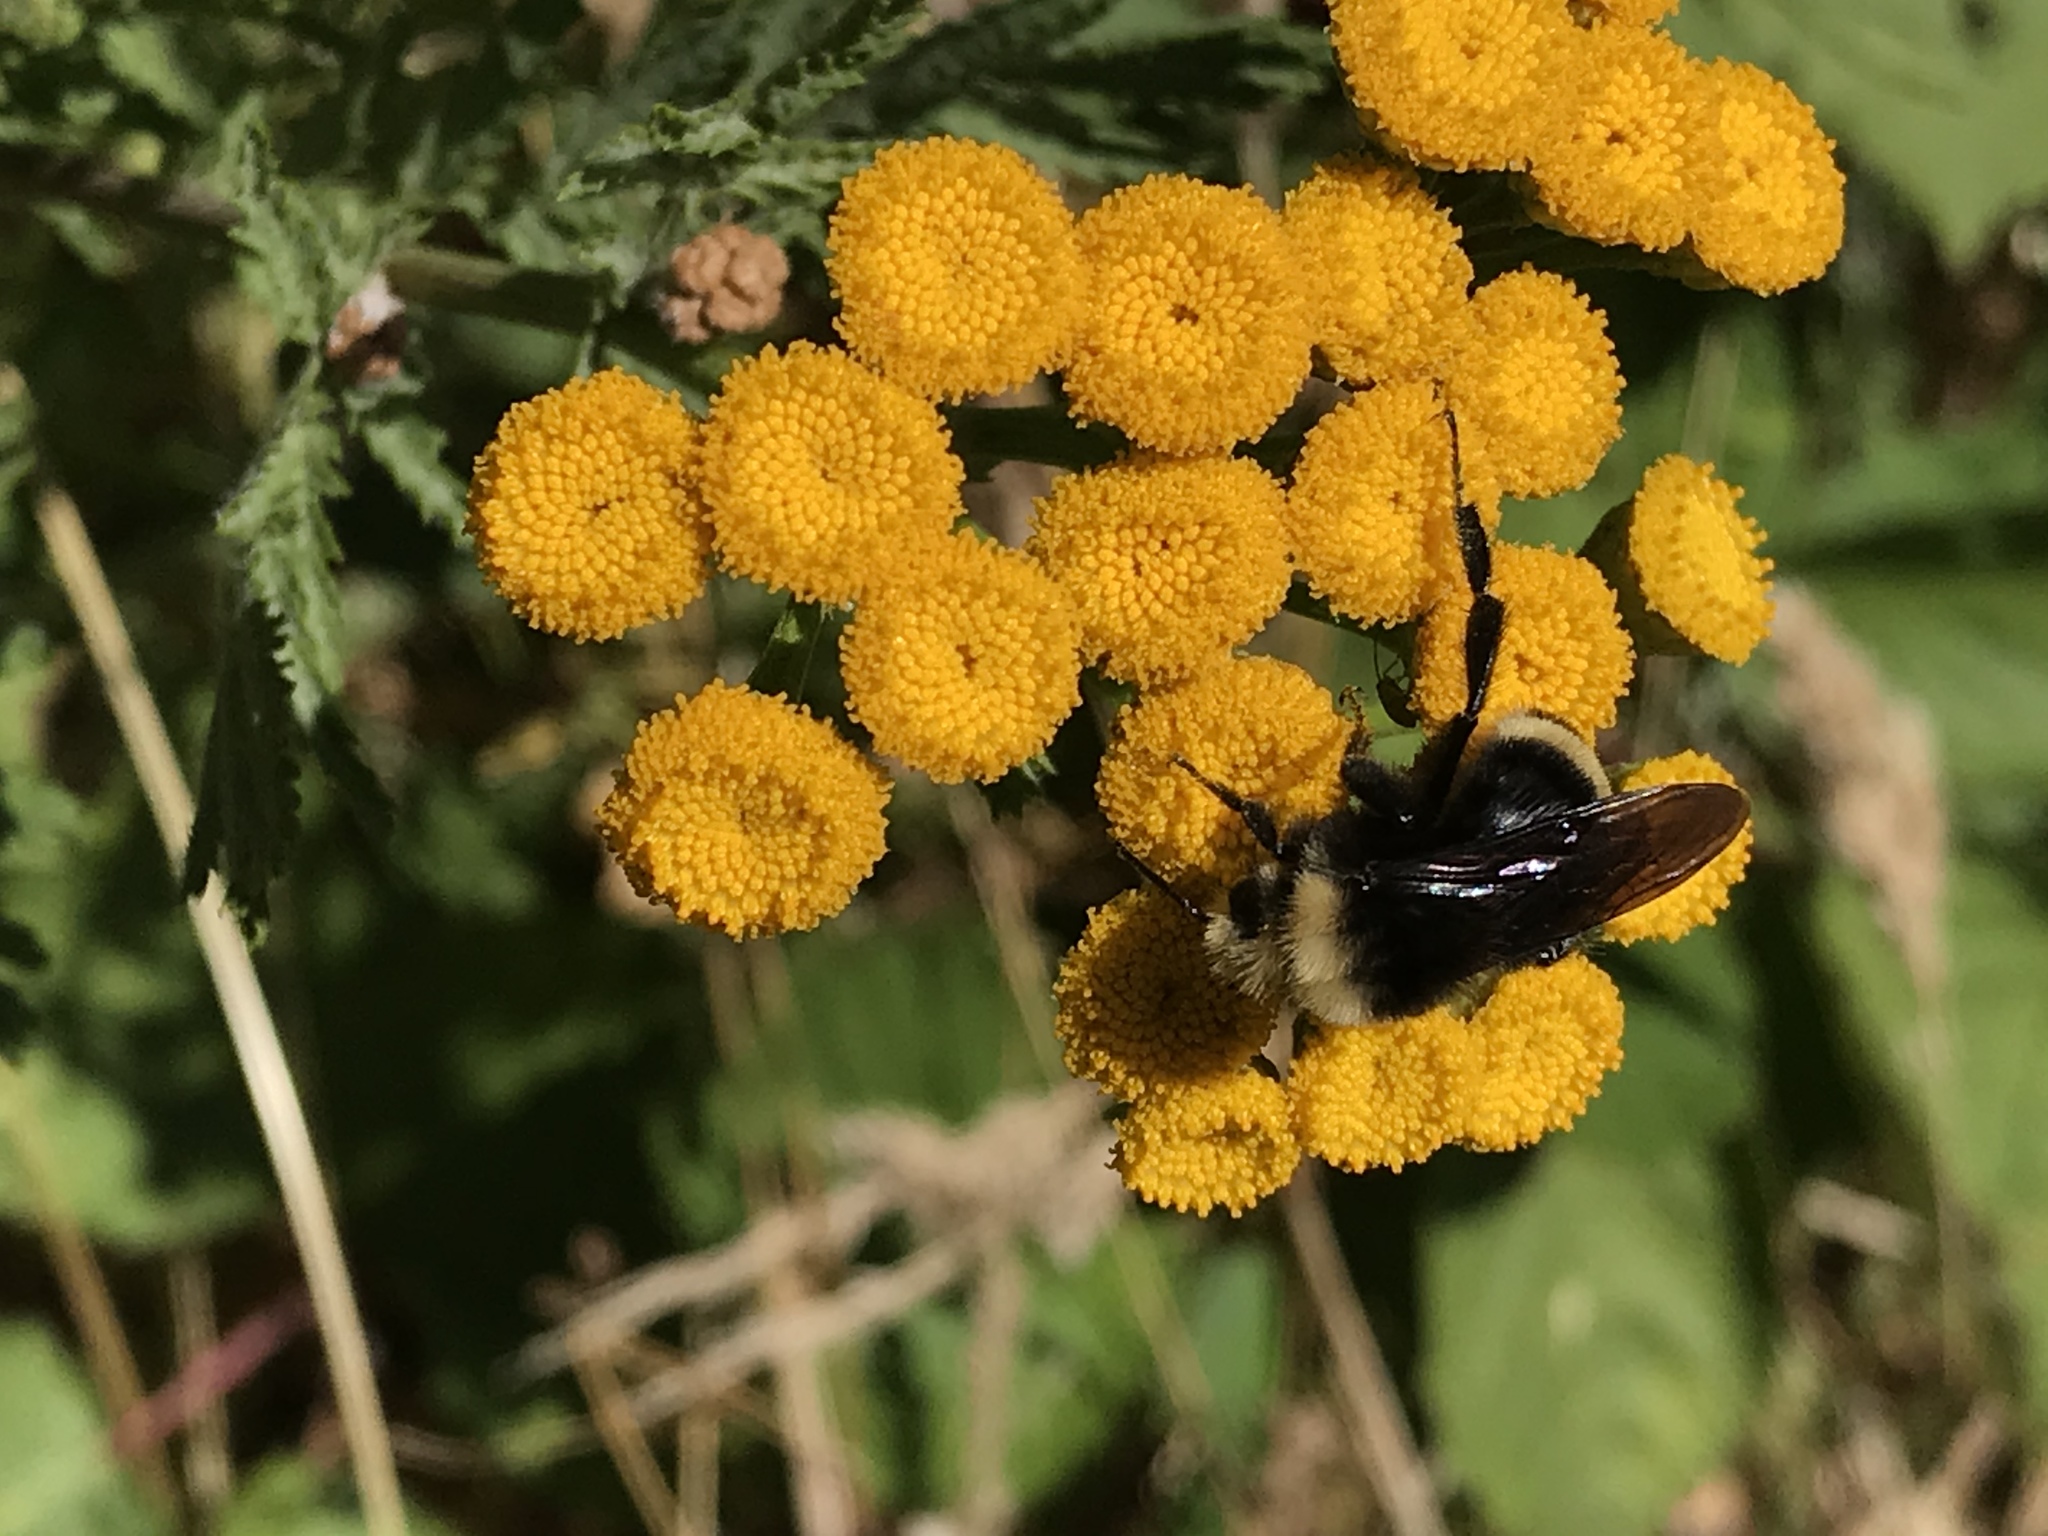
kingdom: Animalia
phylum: Arthropoda
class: Insecta
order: Hymenoptera
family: Apidae
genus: Bombus
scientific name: Bombus vosnesenskii
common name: Vosnesensky bumble bee
